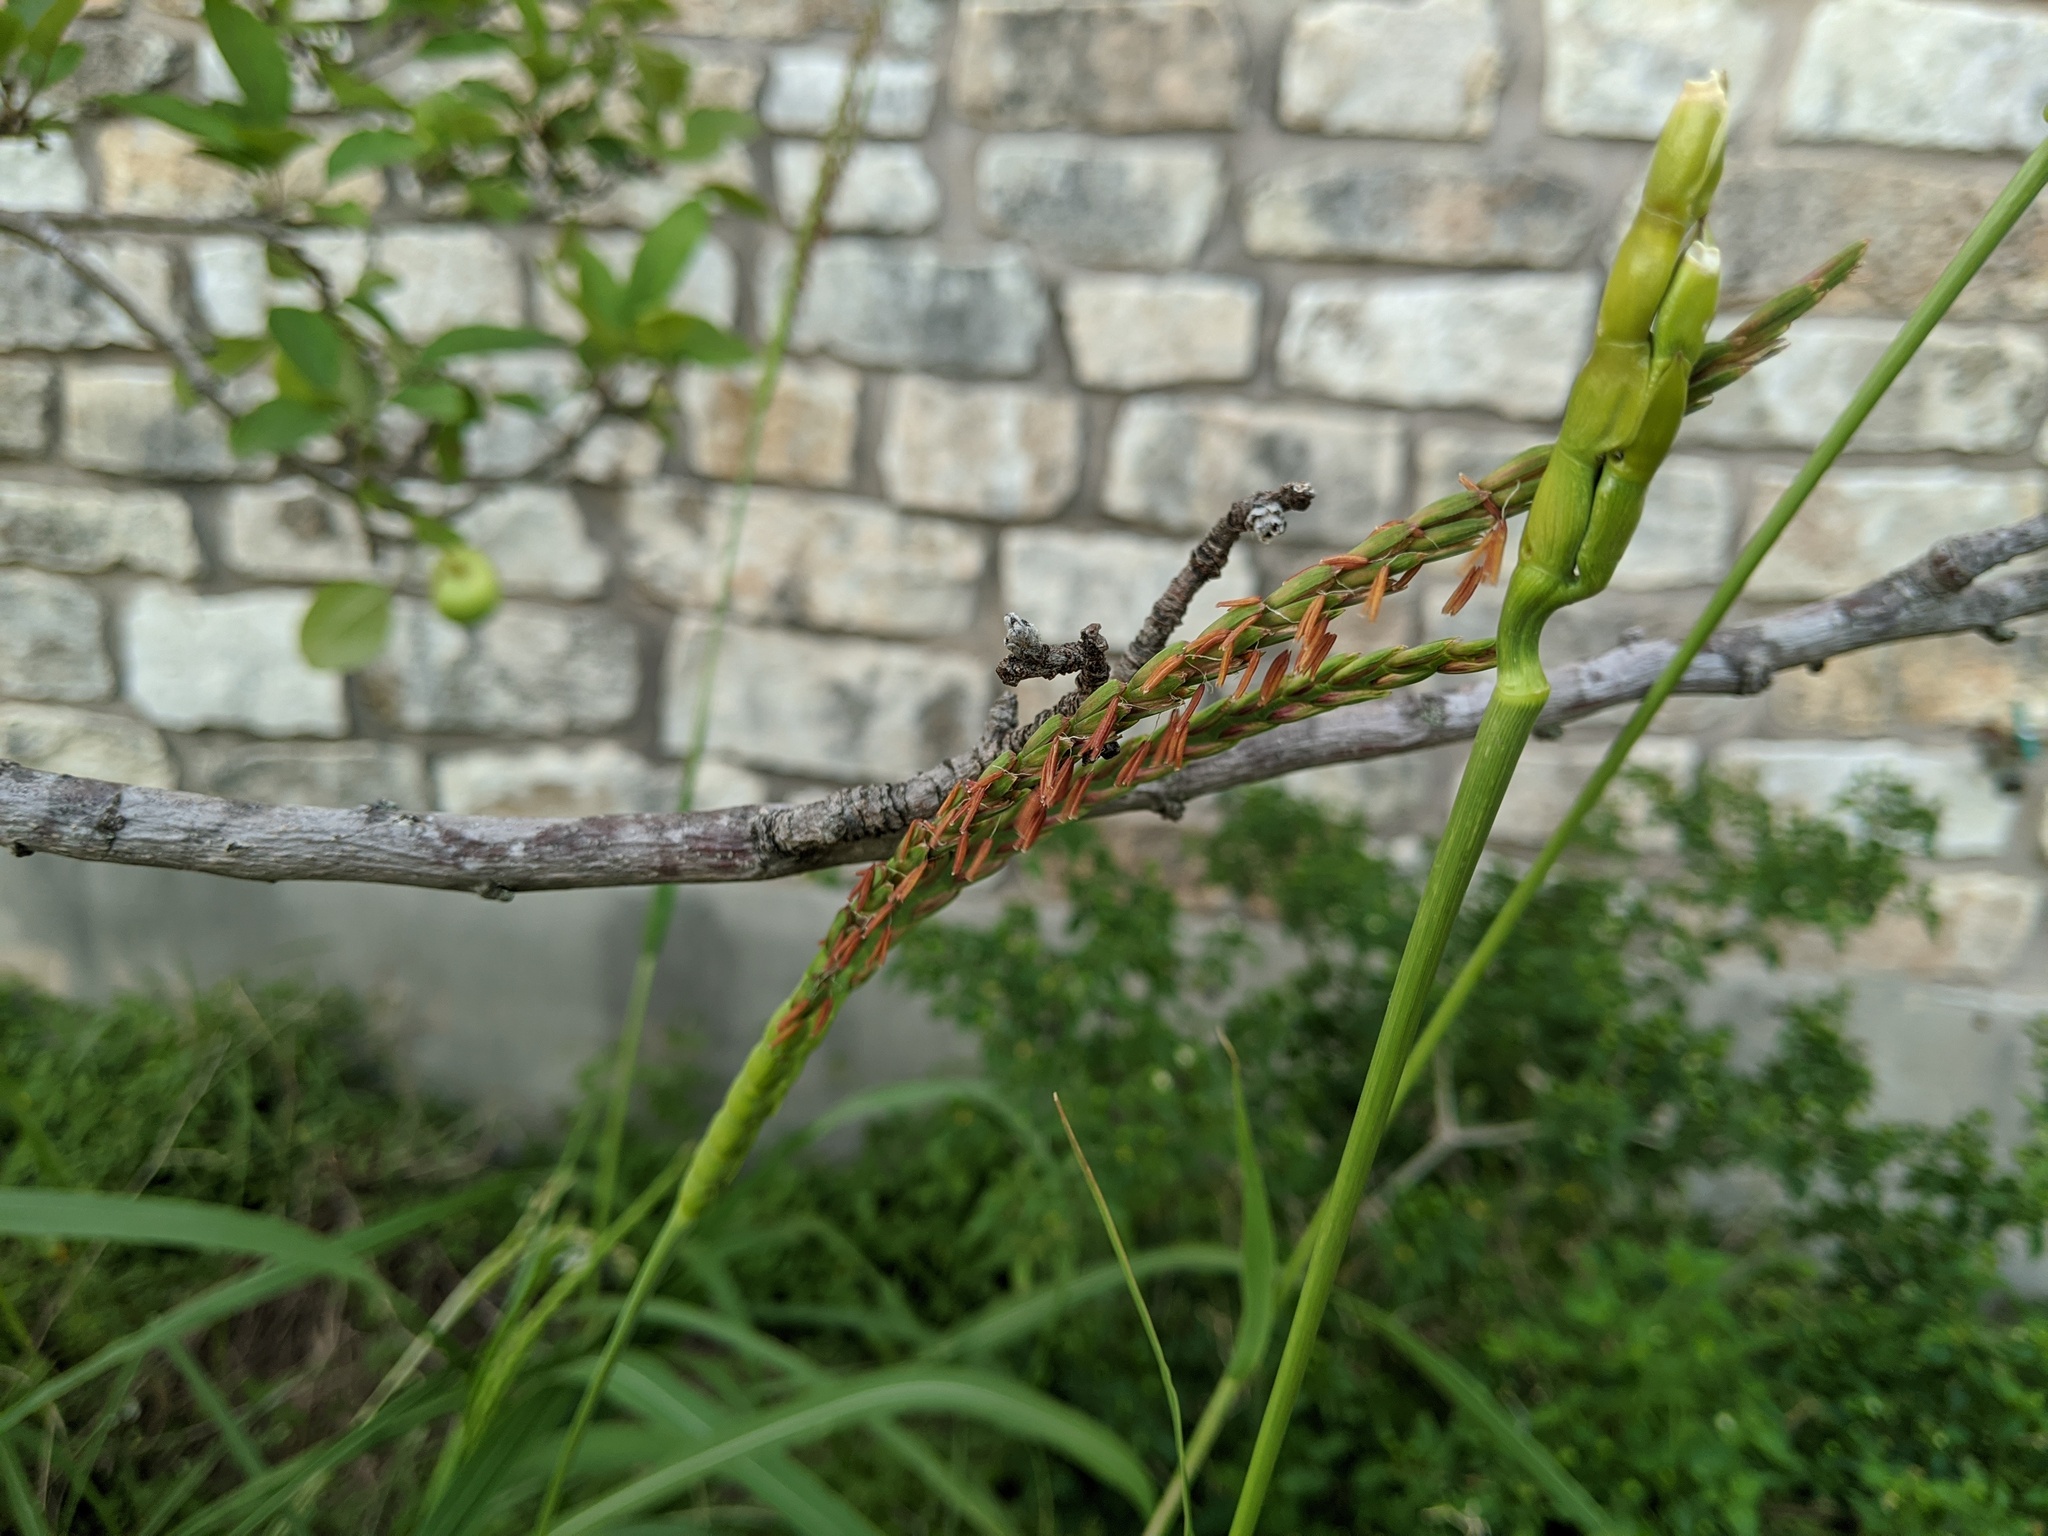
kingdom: Plantae
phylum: Tracheophyta
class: Liliopsida
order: Poales
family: Poaceae
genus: Tripsacum
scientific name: Tripsacum dactyloides
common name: Buffalo-grass
